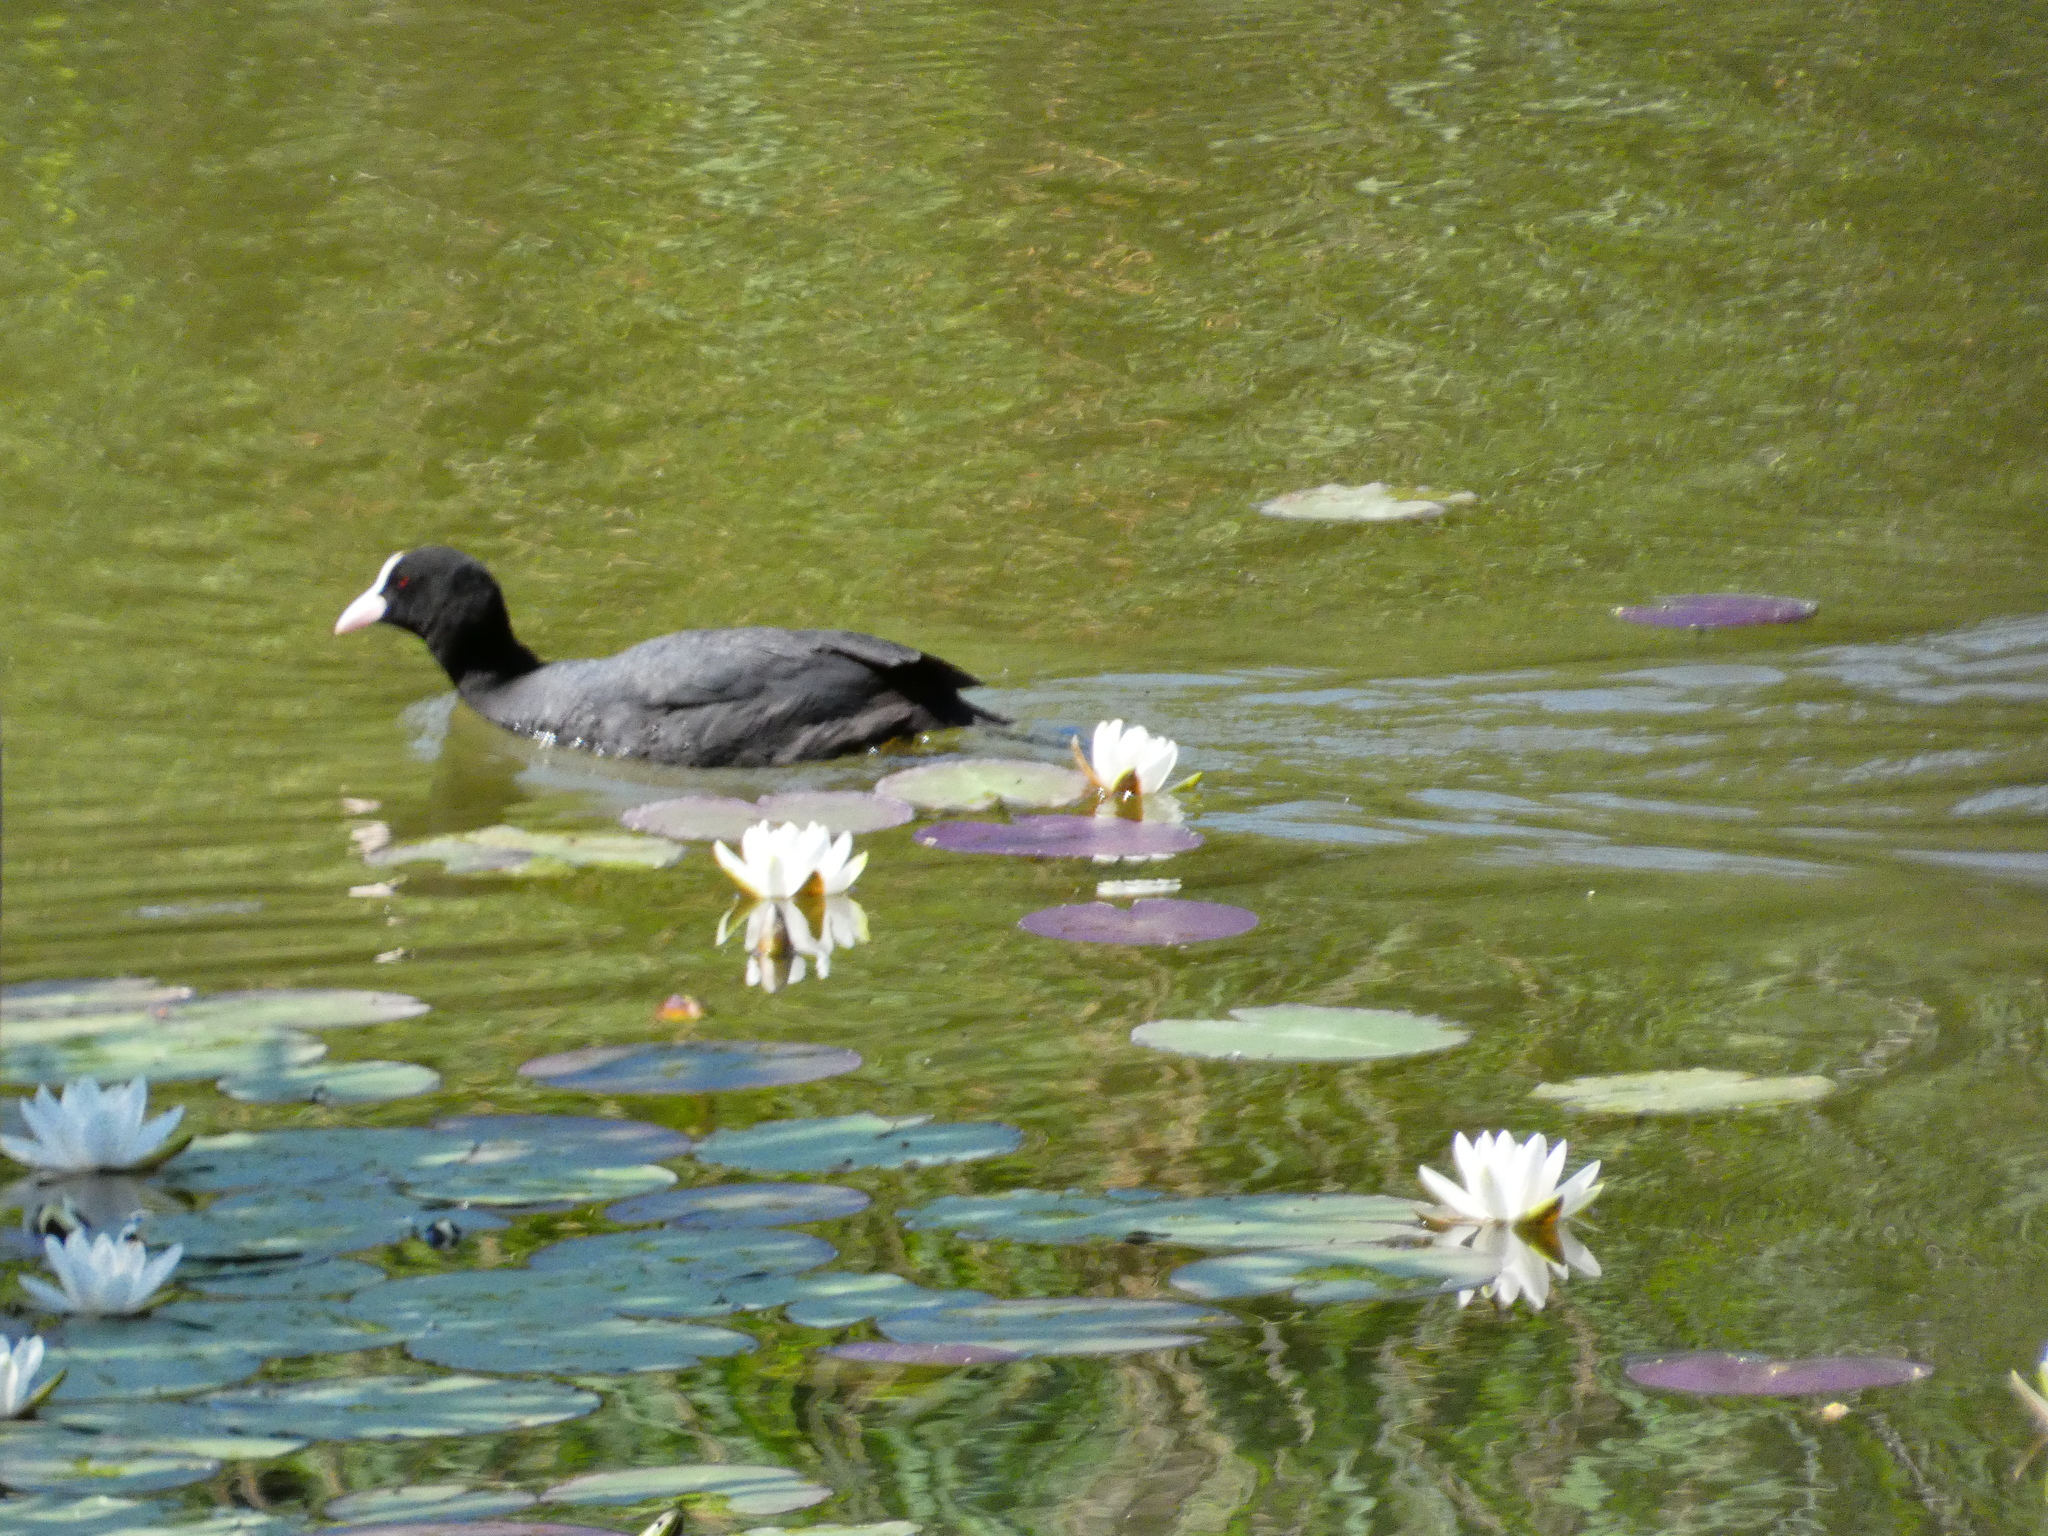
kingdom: Animalia
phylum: Chordata
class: Aves
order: Gruiformes
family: Rallidae
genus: Fulica
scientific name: Fulica atra
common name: Eurasian coot
